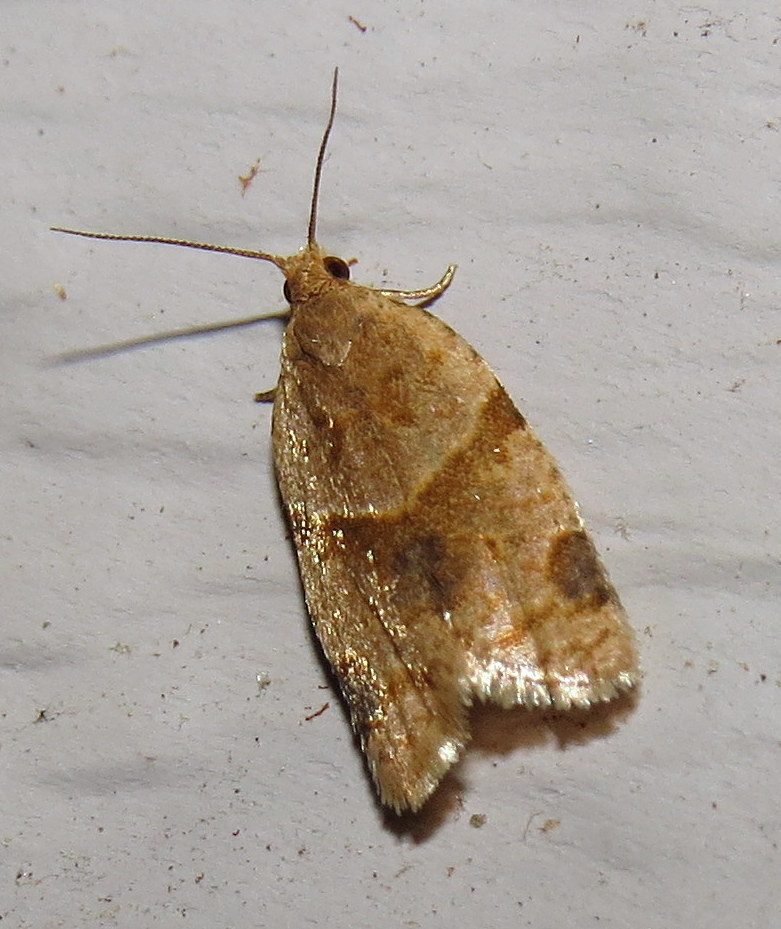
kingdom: Animalia
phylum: Arthropoda
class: Insecta
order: Lepidoptera
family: Tortricidae
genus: Clepsis
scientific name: Clepsis peritana
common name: Garden tortrix
